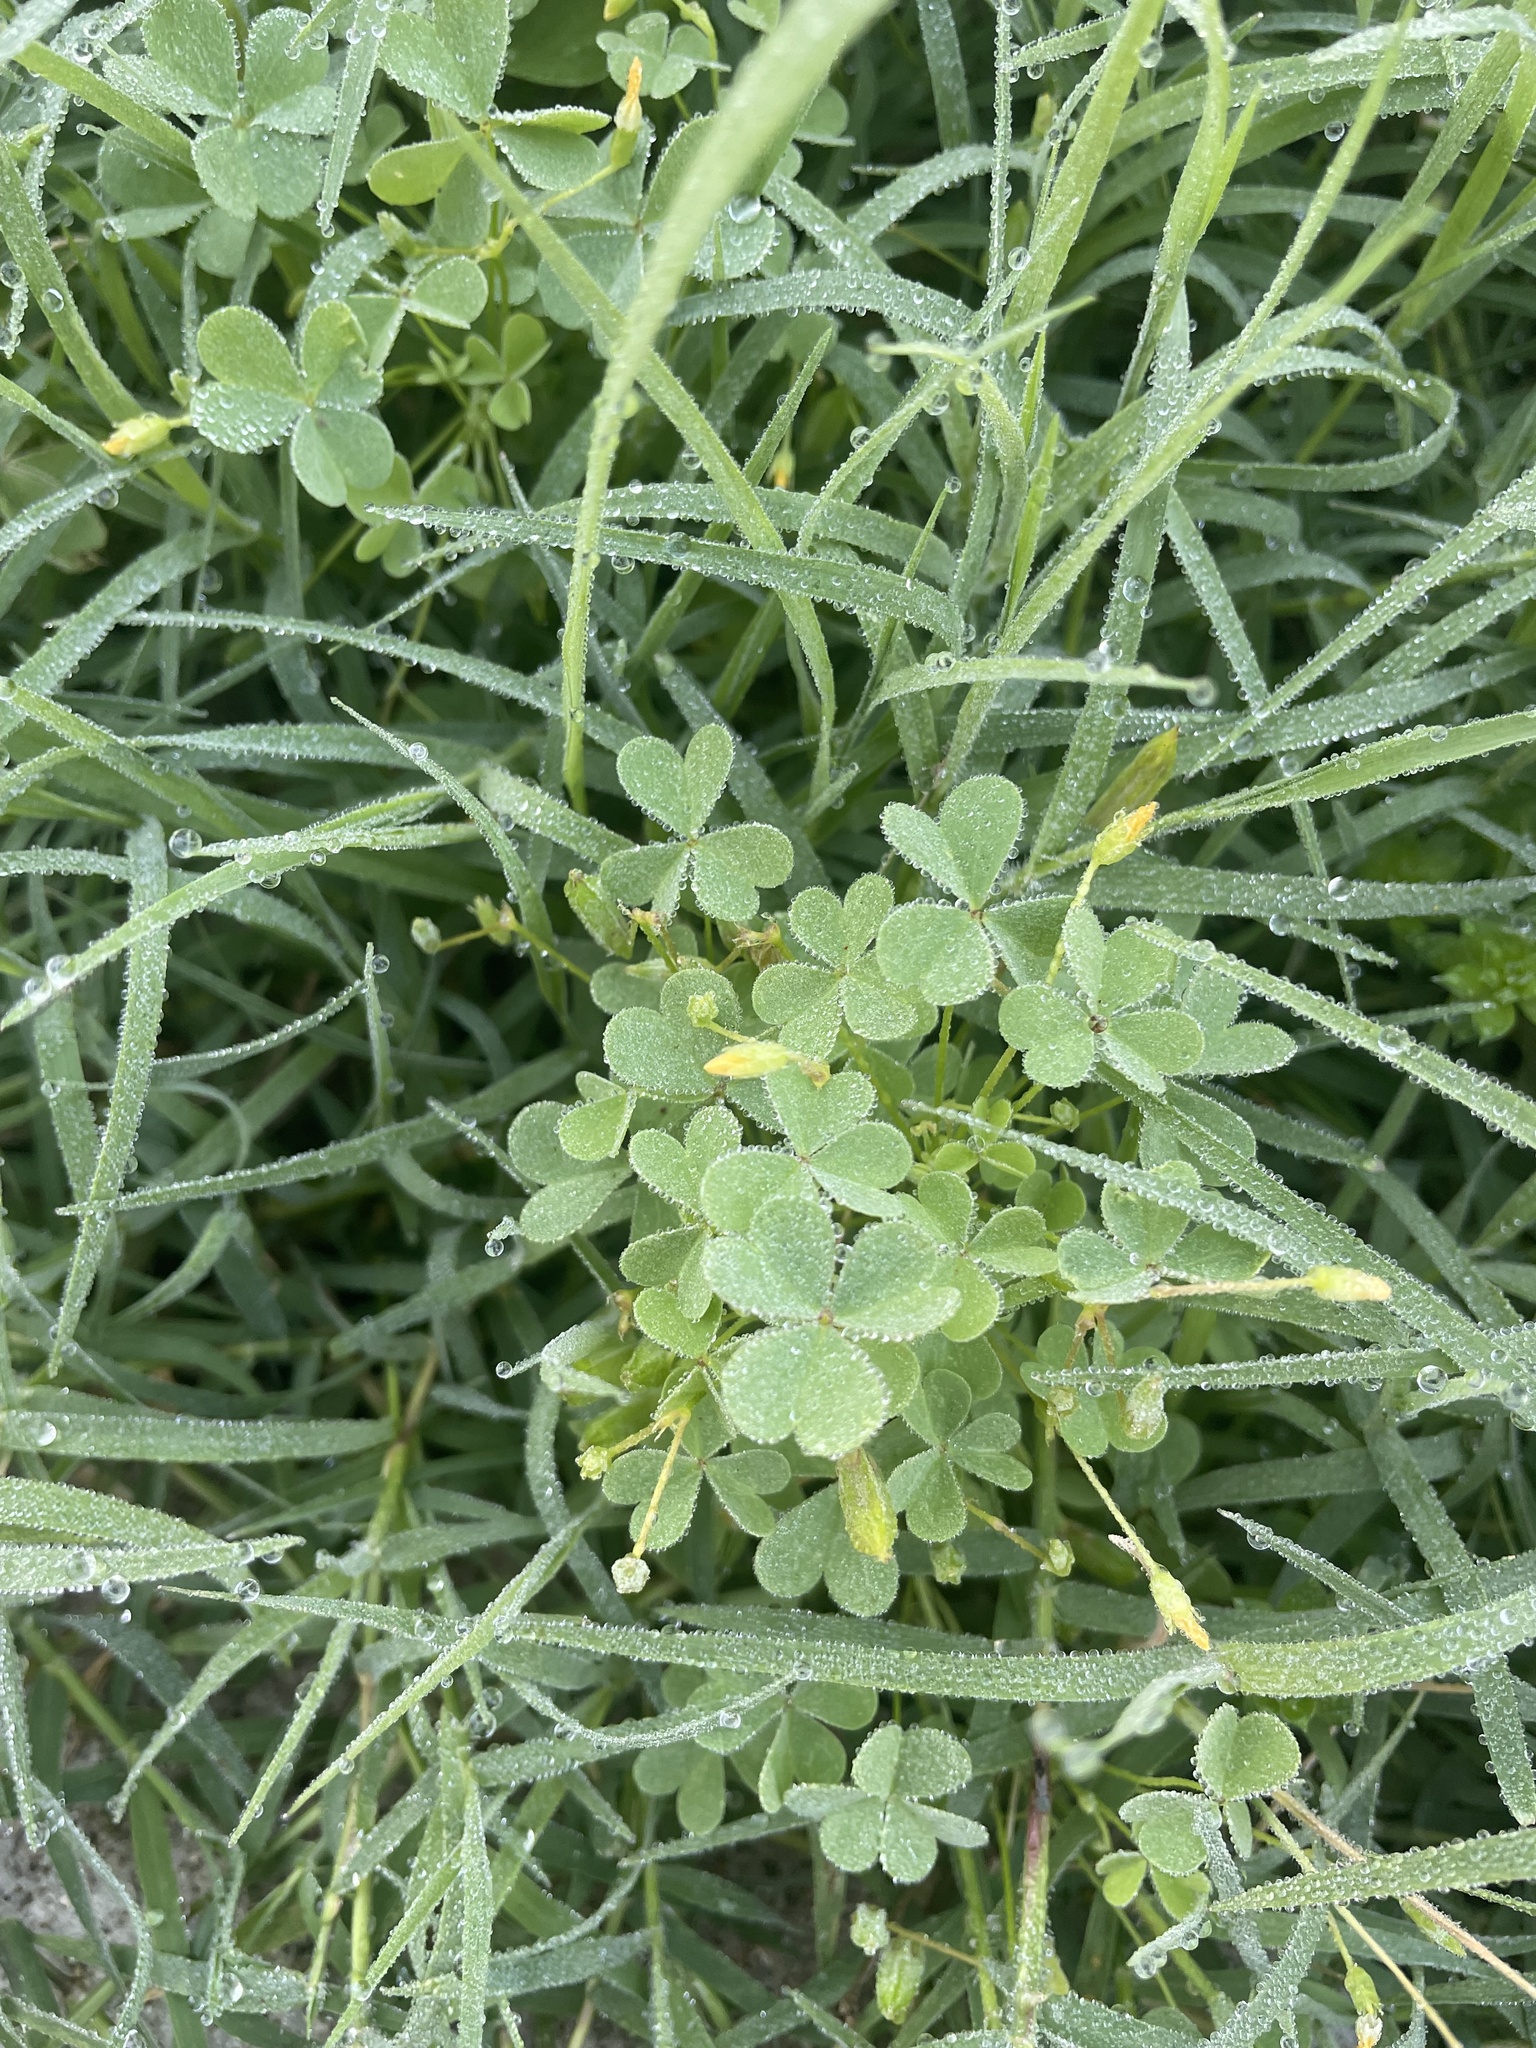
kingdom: Plantae
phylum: Tracheophyta
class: Magnoliopsida
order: Oxalidales
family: Oxalidaceae
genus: Oxalis
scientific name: Oxalis dillenii
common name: Sussex yellow-sorrel
